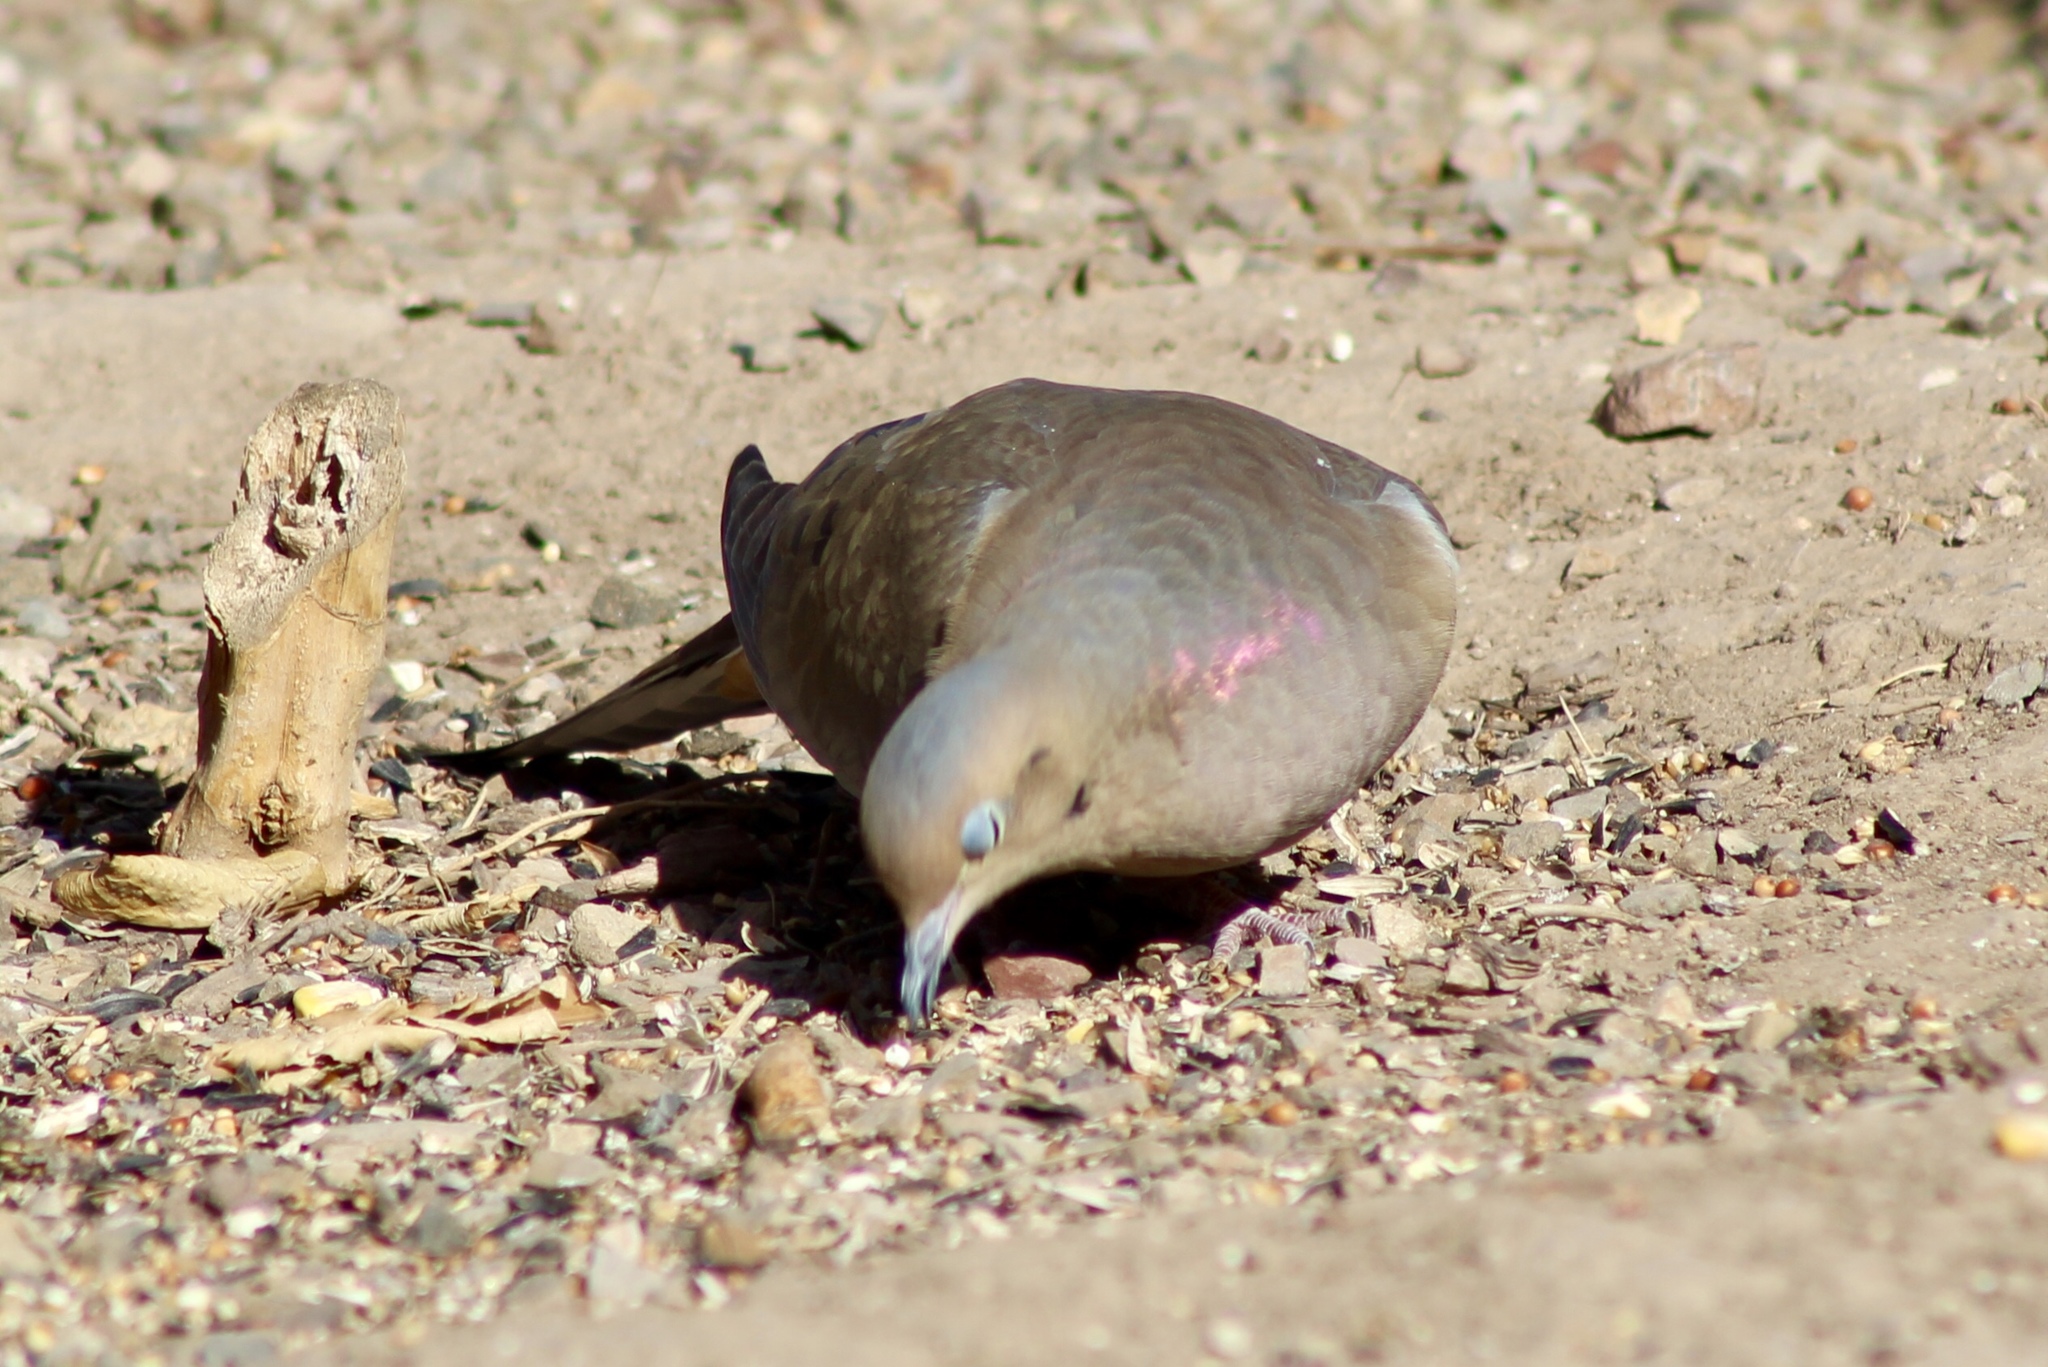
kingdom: Animalia
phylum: Chordata
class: Aves
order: Columbiformes
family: Columbidae
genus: Zenaida
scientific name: Zenaida macroura
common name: Mourning dove
